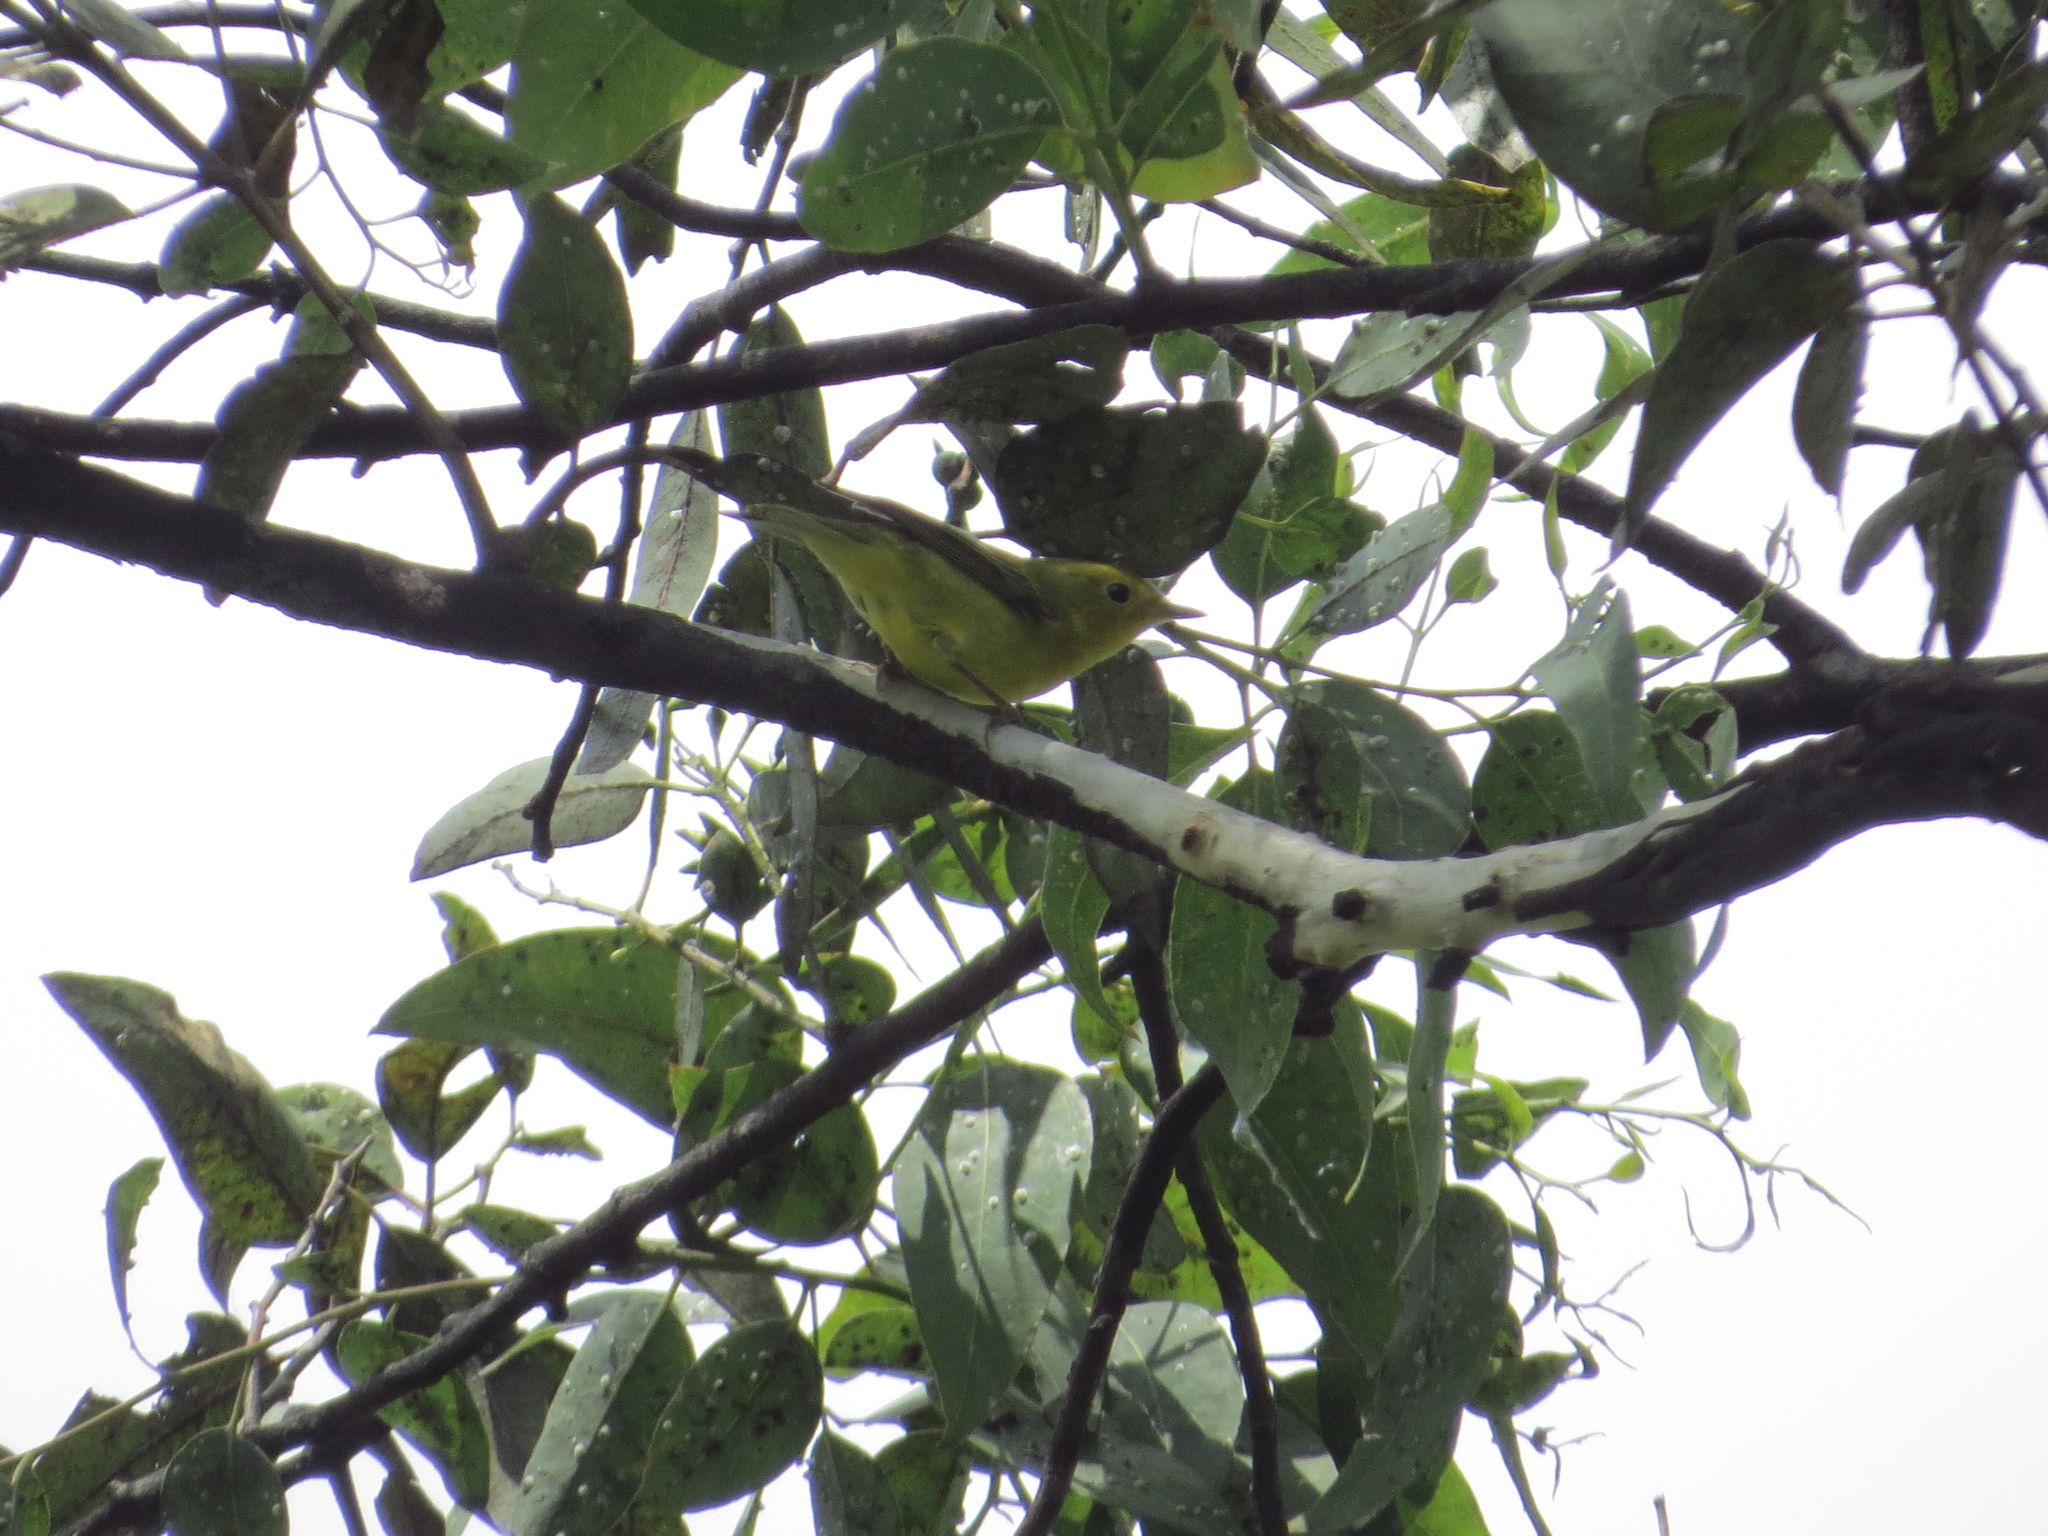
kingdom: Animalia
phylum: Chordata
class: Aves
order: Passeriformes
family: Parulidae
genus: Cardellina
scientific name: Cardellina pusilla
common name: Wilson's warbler
